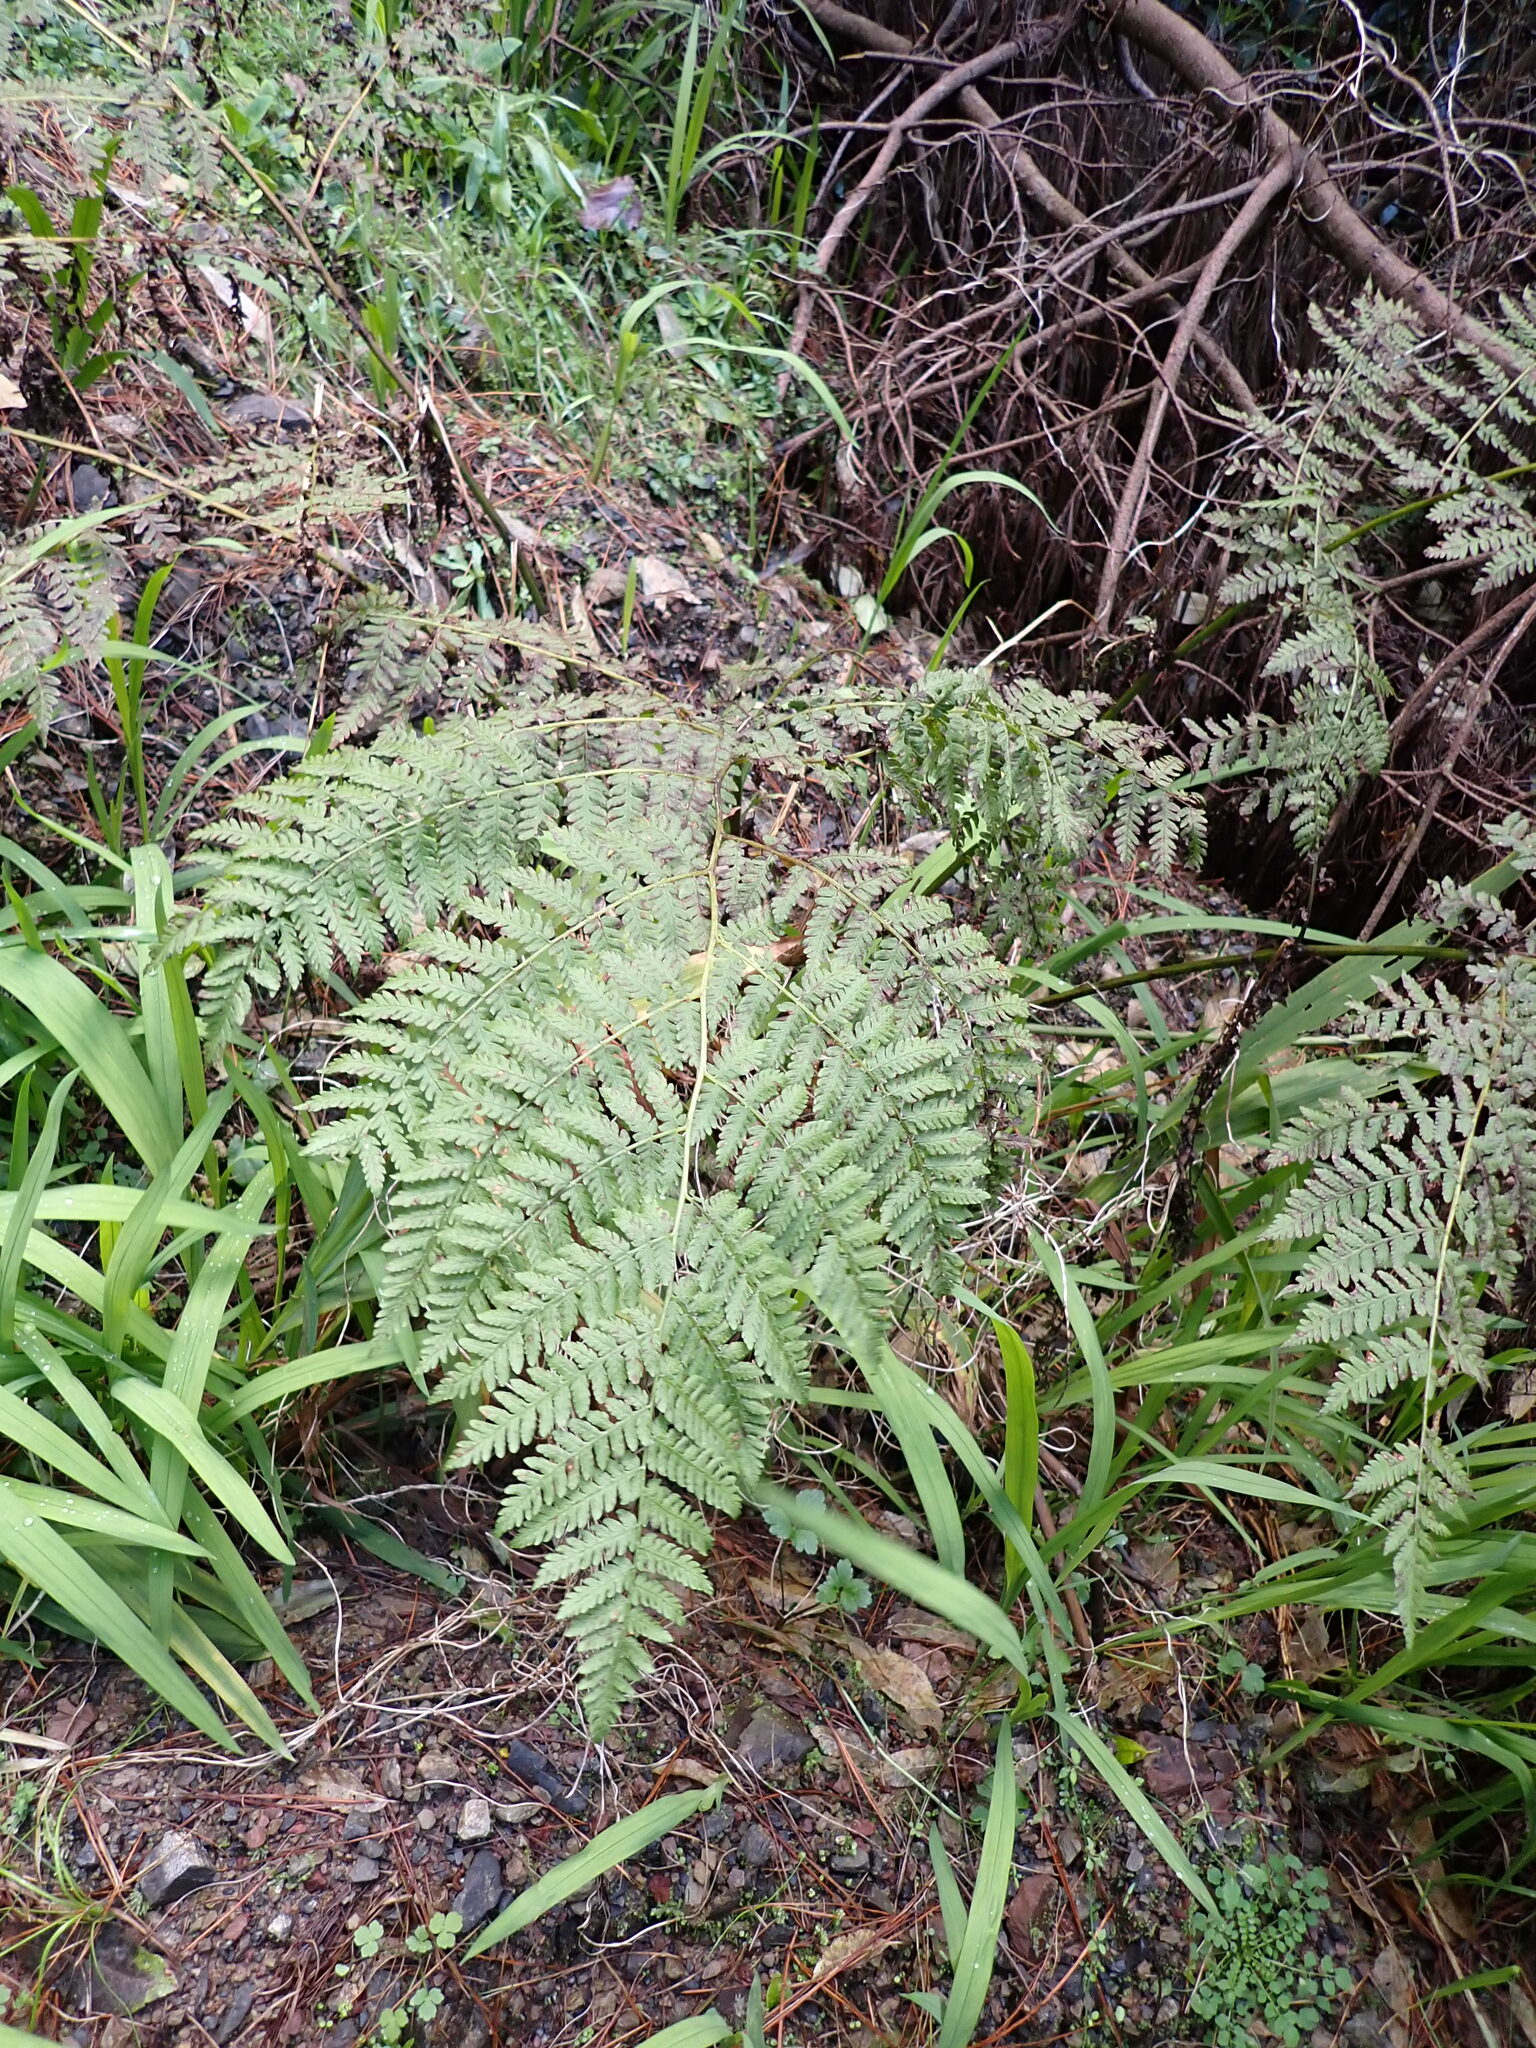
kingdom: Plantae
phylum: Tracheophyta
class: Polypodiopsida
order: Polypodiales
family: Athyriaceae
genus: Diplazium
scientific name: Diplazium australe
